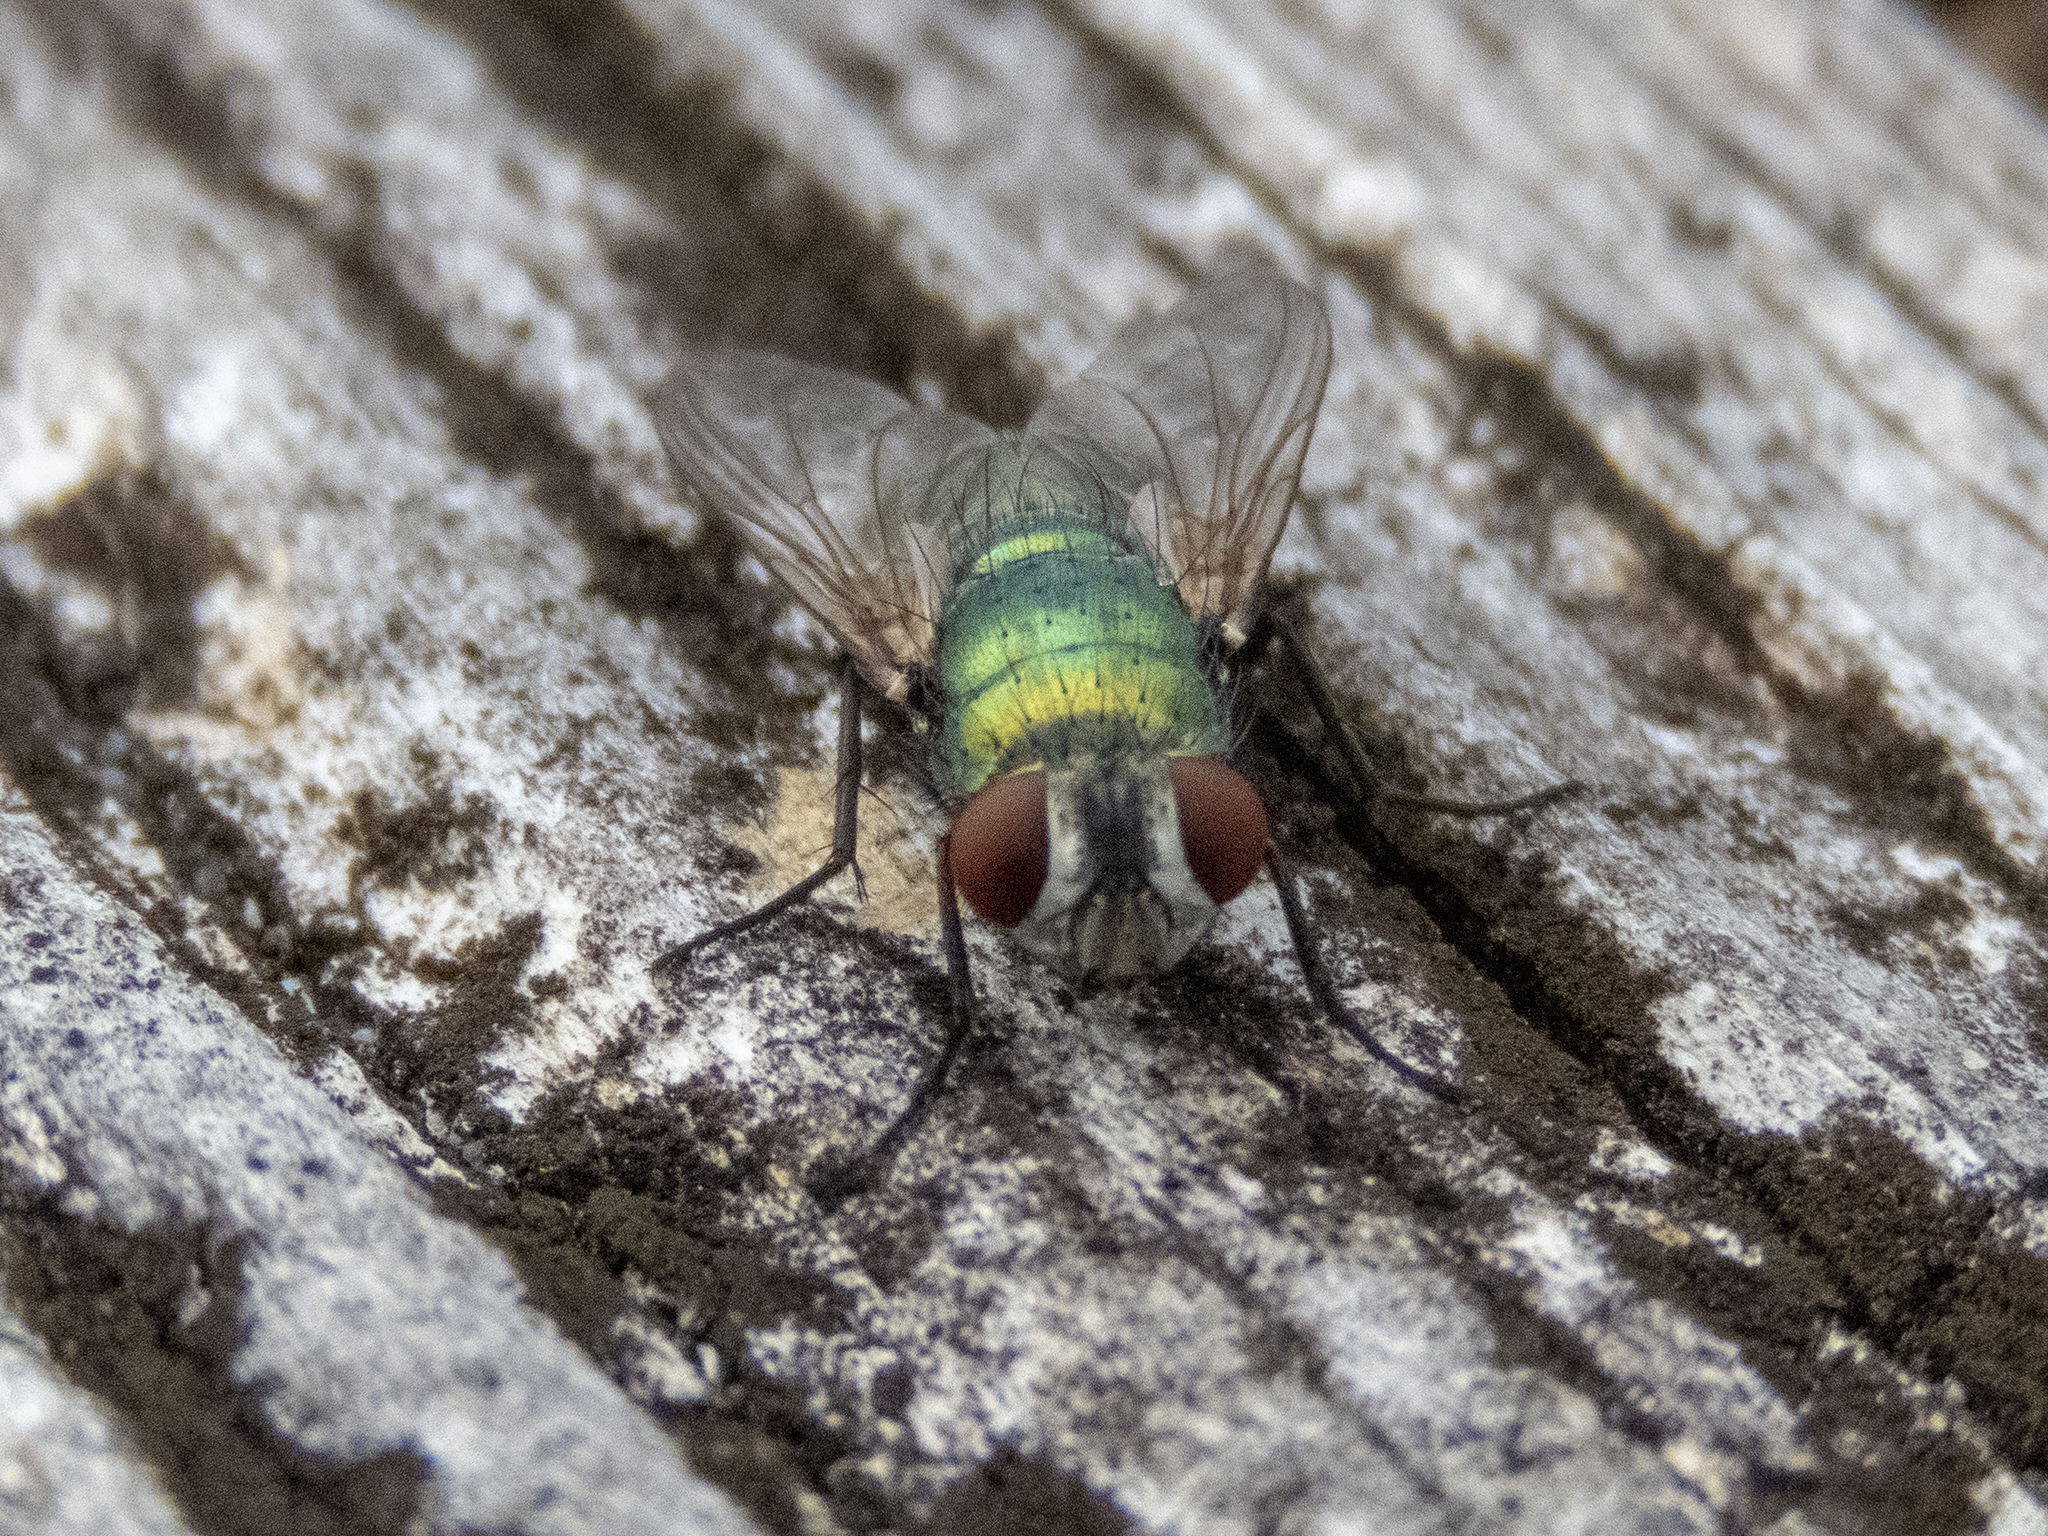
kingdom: Animalia
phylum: Arthropoda
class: Insecta
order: Diptera
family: Calliphoridae
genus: Lucilia
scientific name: Lucilia sericata
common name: Blow fly
